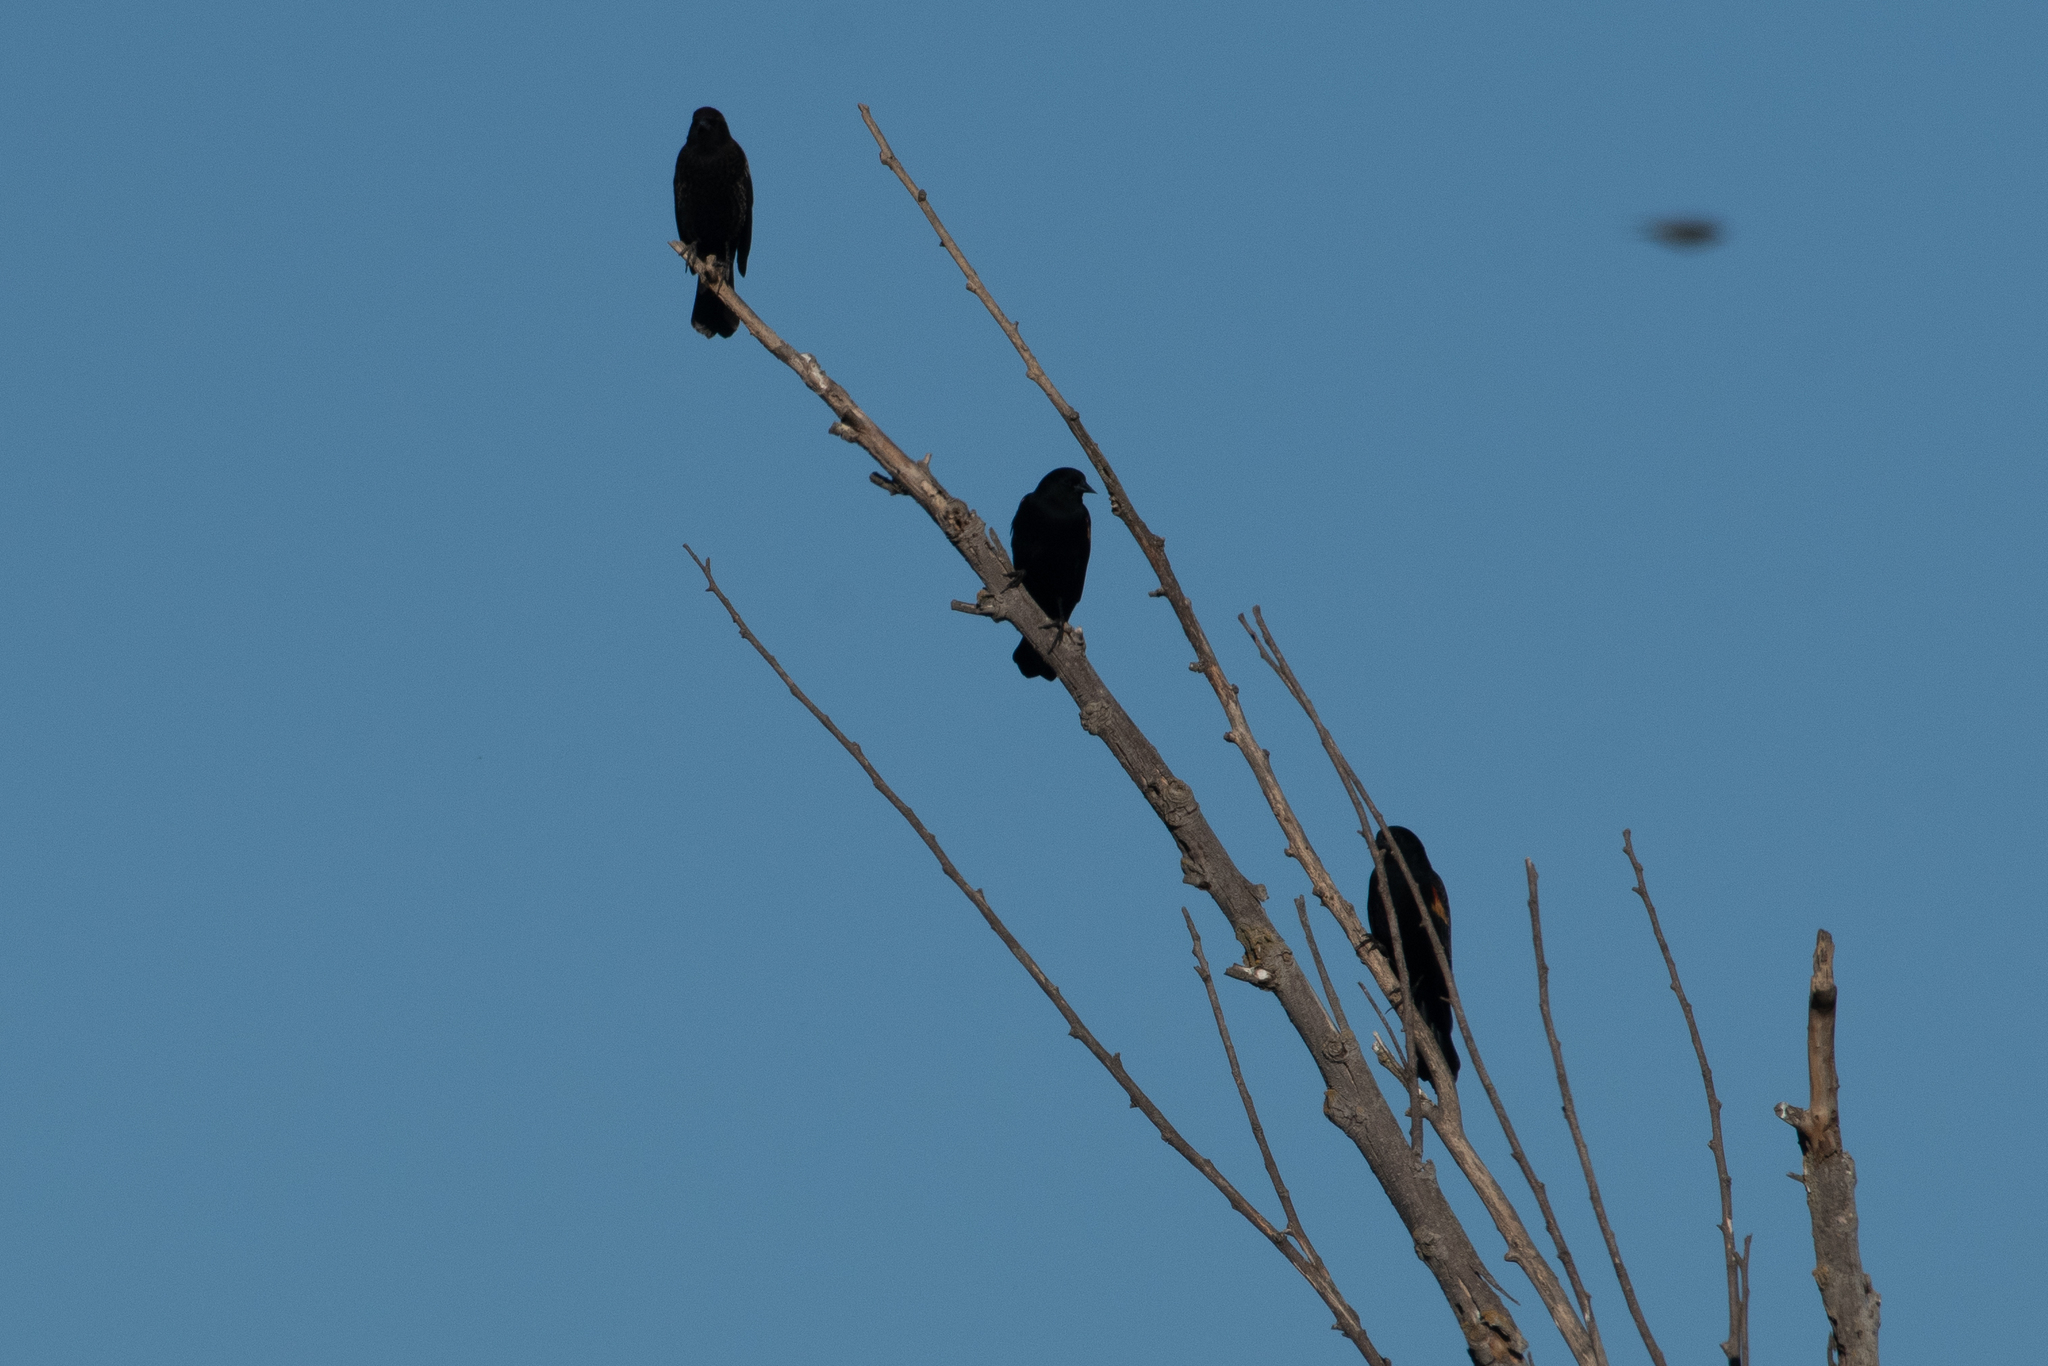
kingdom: Animalia
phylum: Chordata
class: Aves
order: Passeriformes
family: Icteridae
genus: Agelaius
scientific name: Agelaius phoeniceus
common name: Red-winged blackbird
